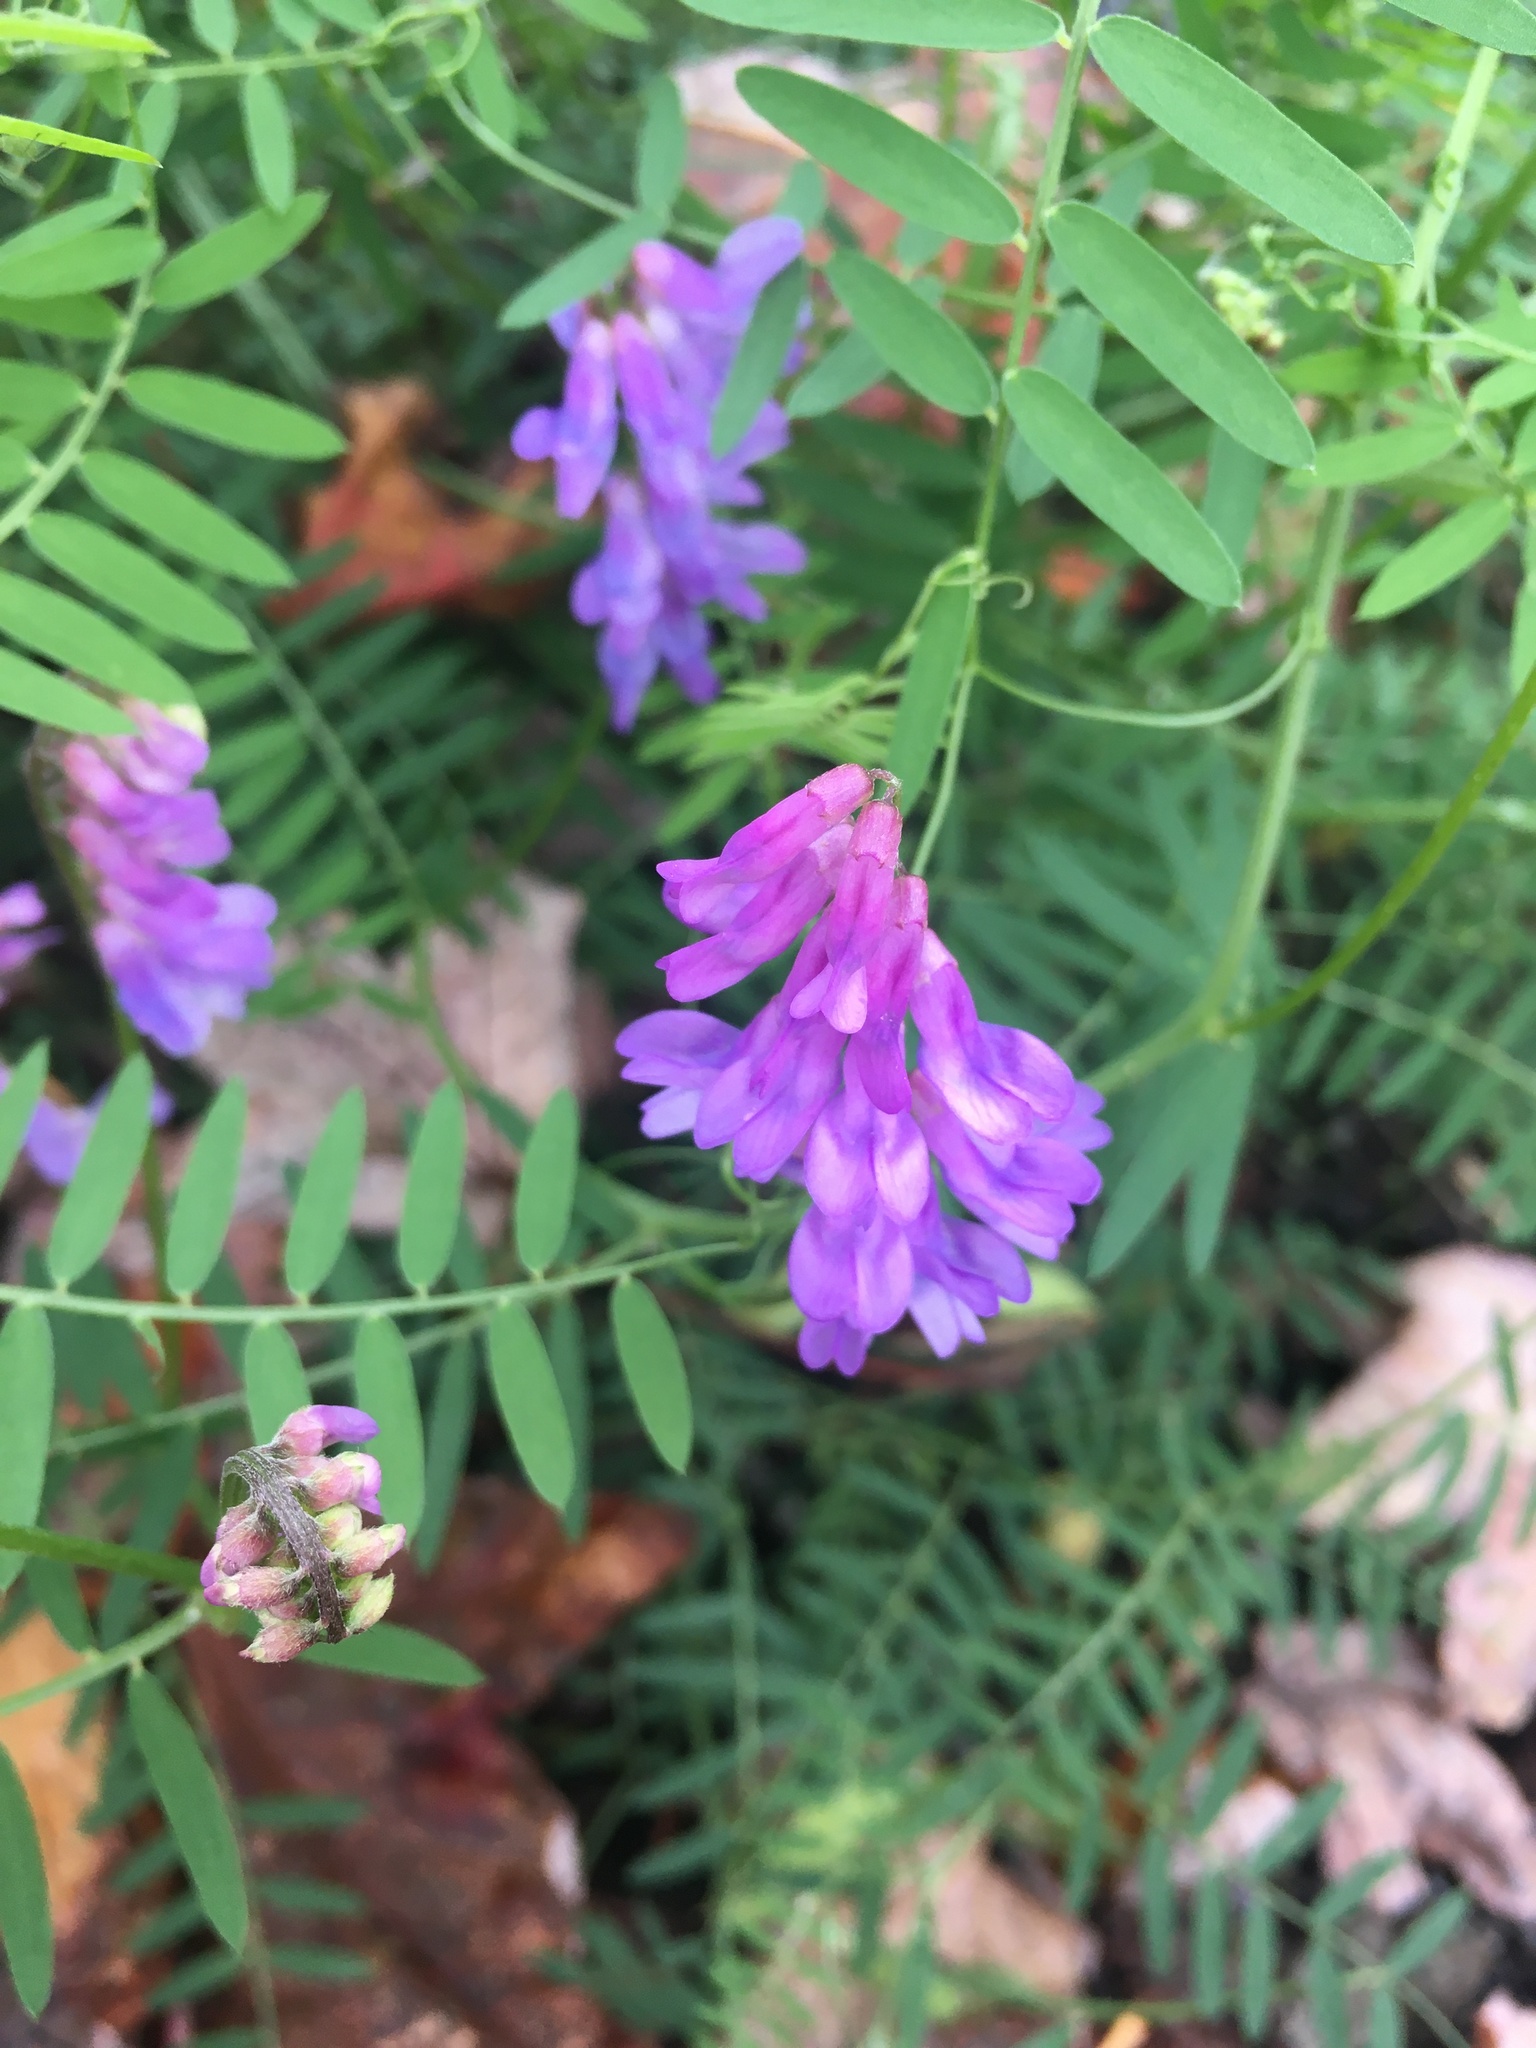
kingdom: Plantae
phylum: Tracheophyta
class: Magnoliopsida
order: Fabales
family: Fabaceae
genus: Vicia
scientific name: Vicia cracca
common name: Bird vetch
